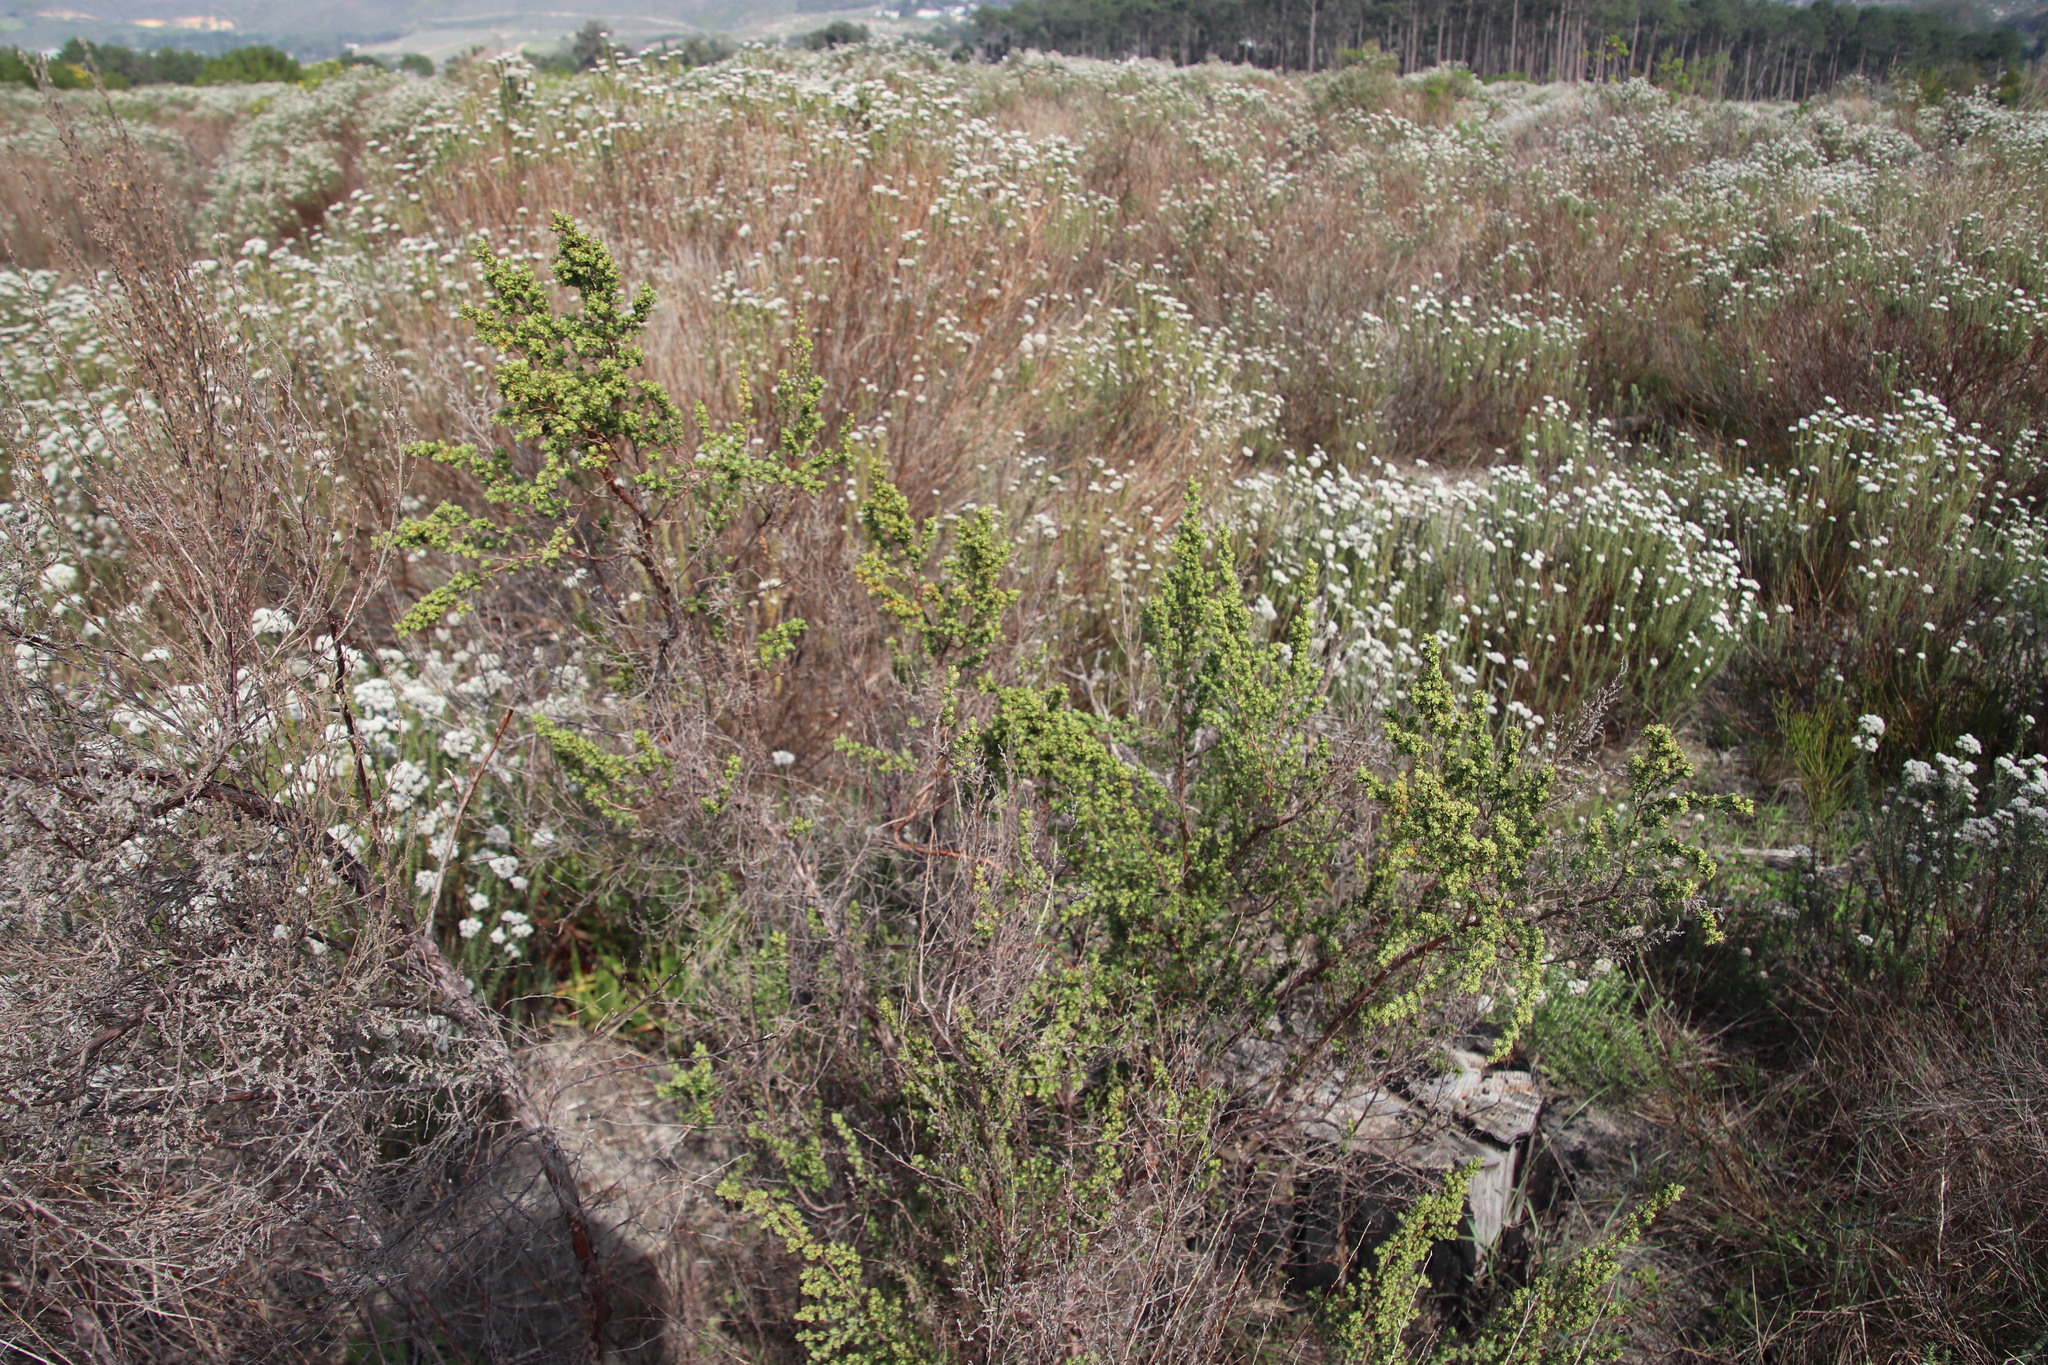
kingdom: Plantae
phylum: Tracheophyta
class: Magnoliopsida
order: Rosales
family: Rosaceae
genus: Cliffortia
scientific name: Cliffortia polygonifolia
